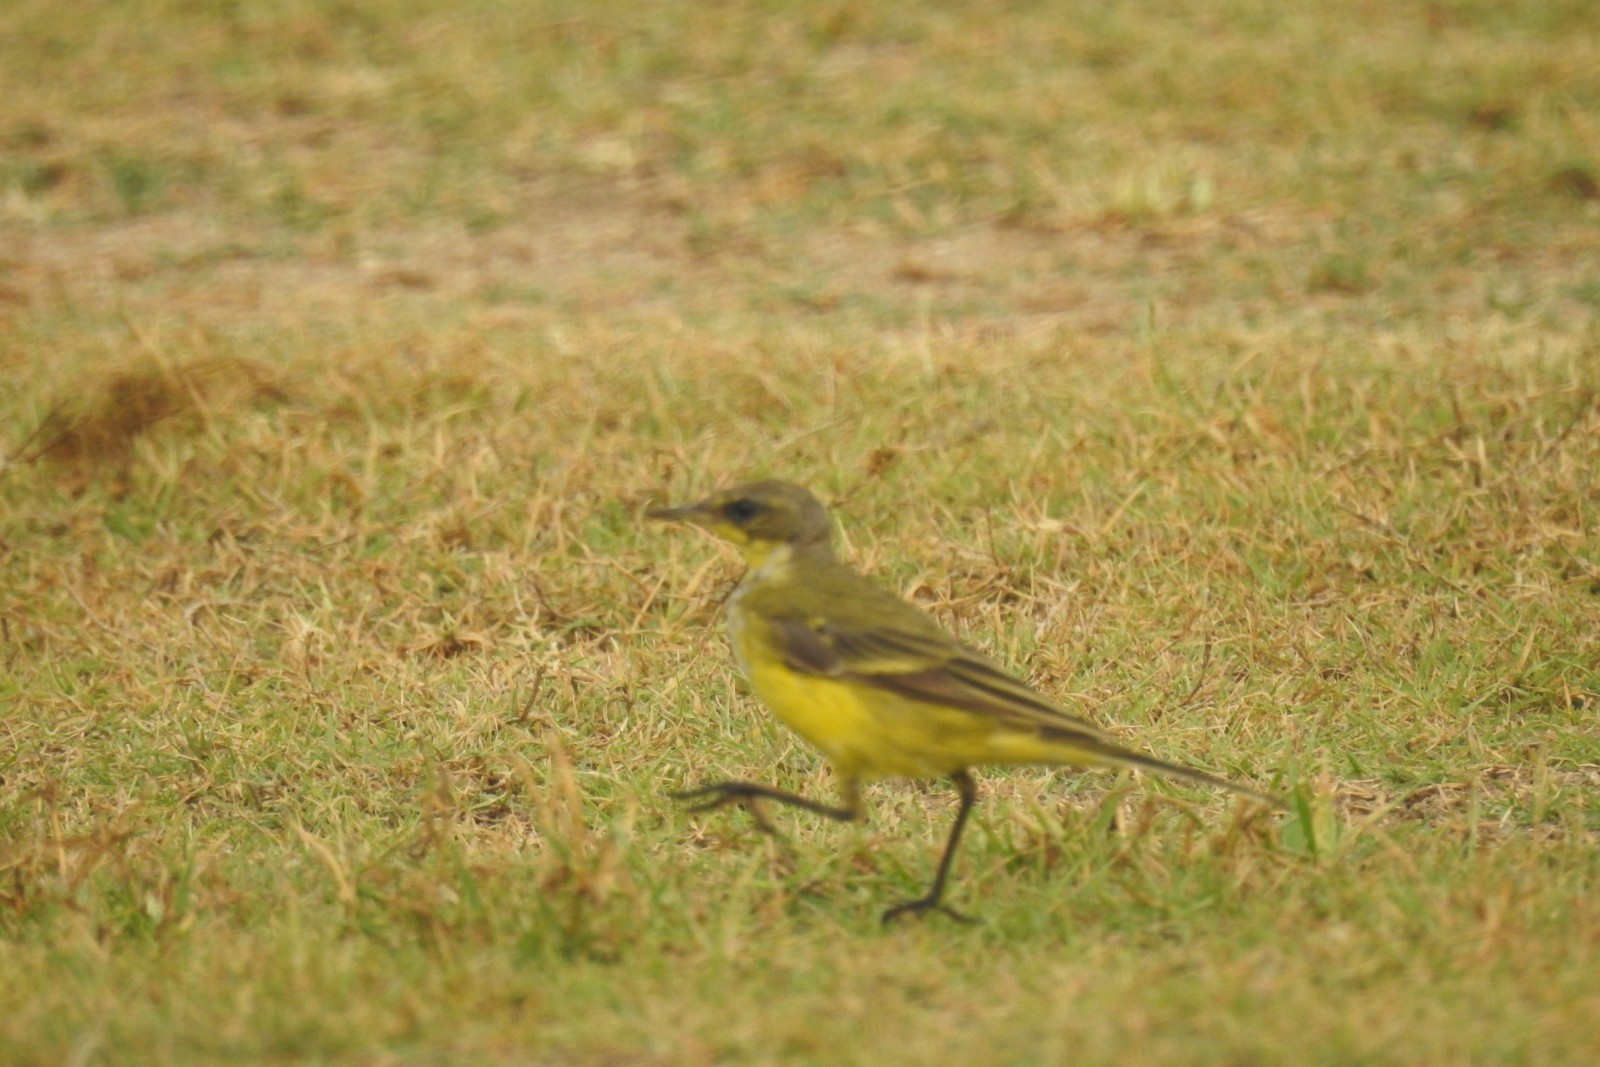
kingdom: Animalia
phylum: Chordata
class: Aves
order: Passeriformes
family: Motacillidae
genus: Motacilla
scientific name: Motacilla flava
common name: Western yellow wagtail
